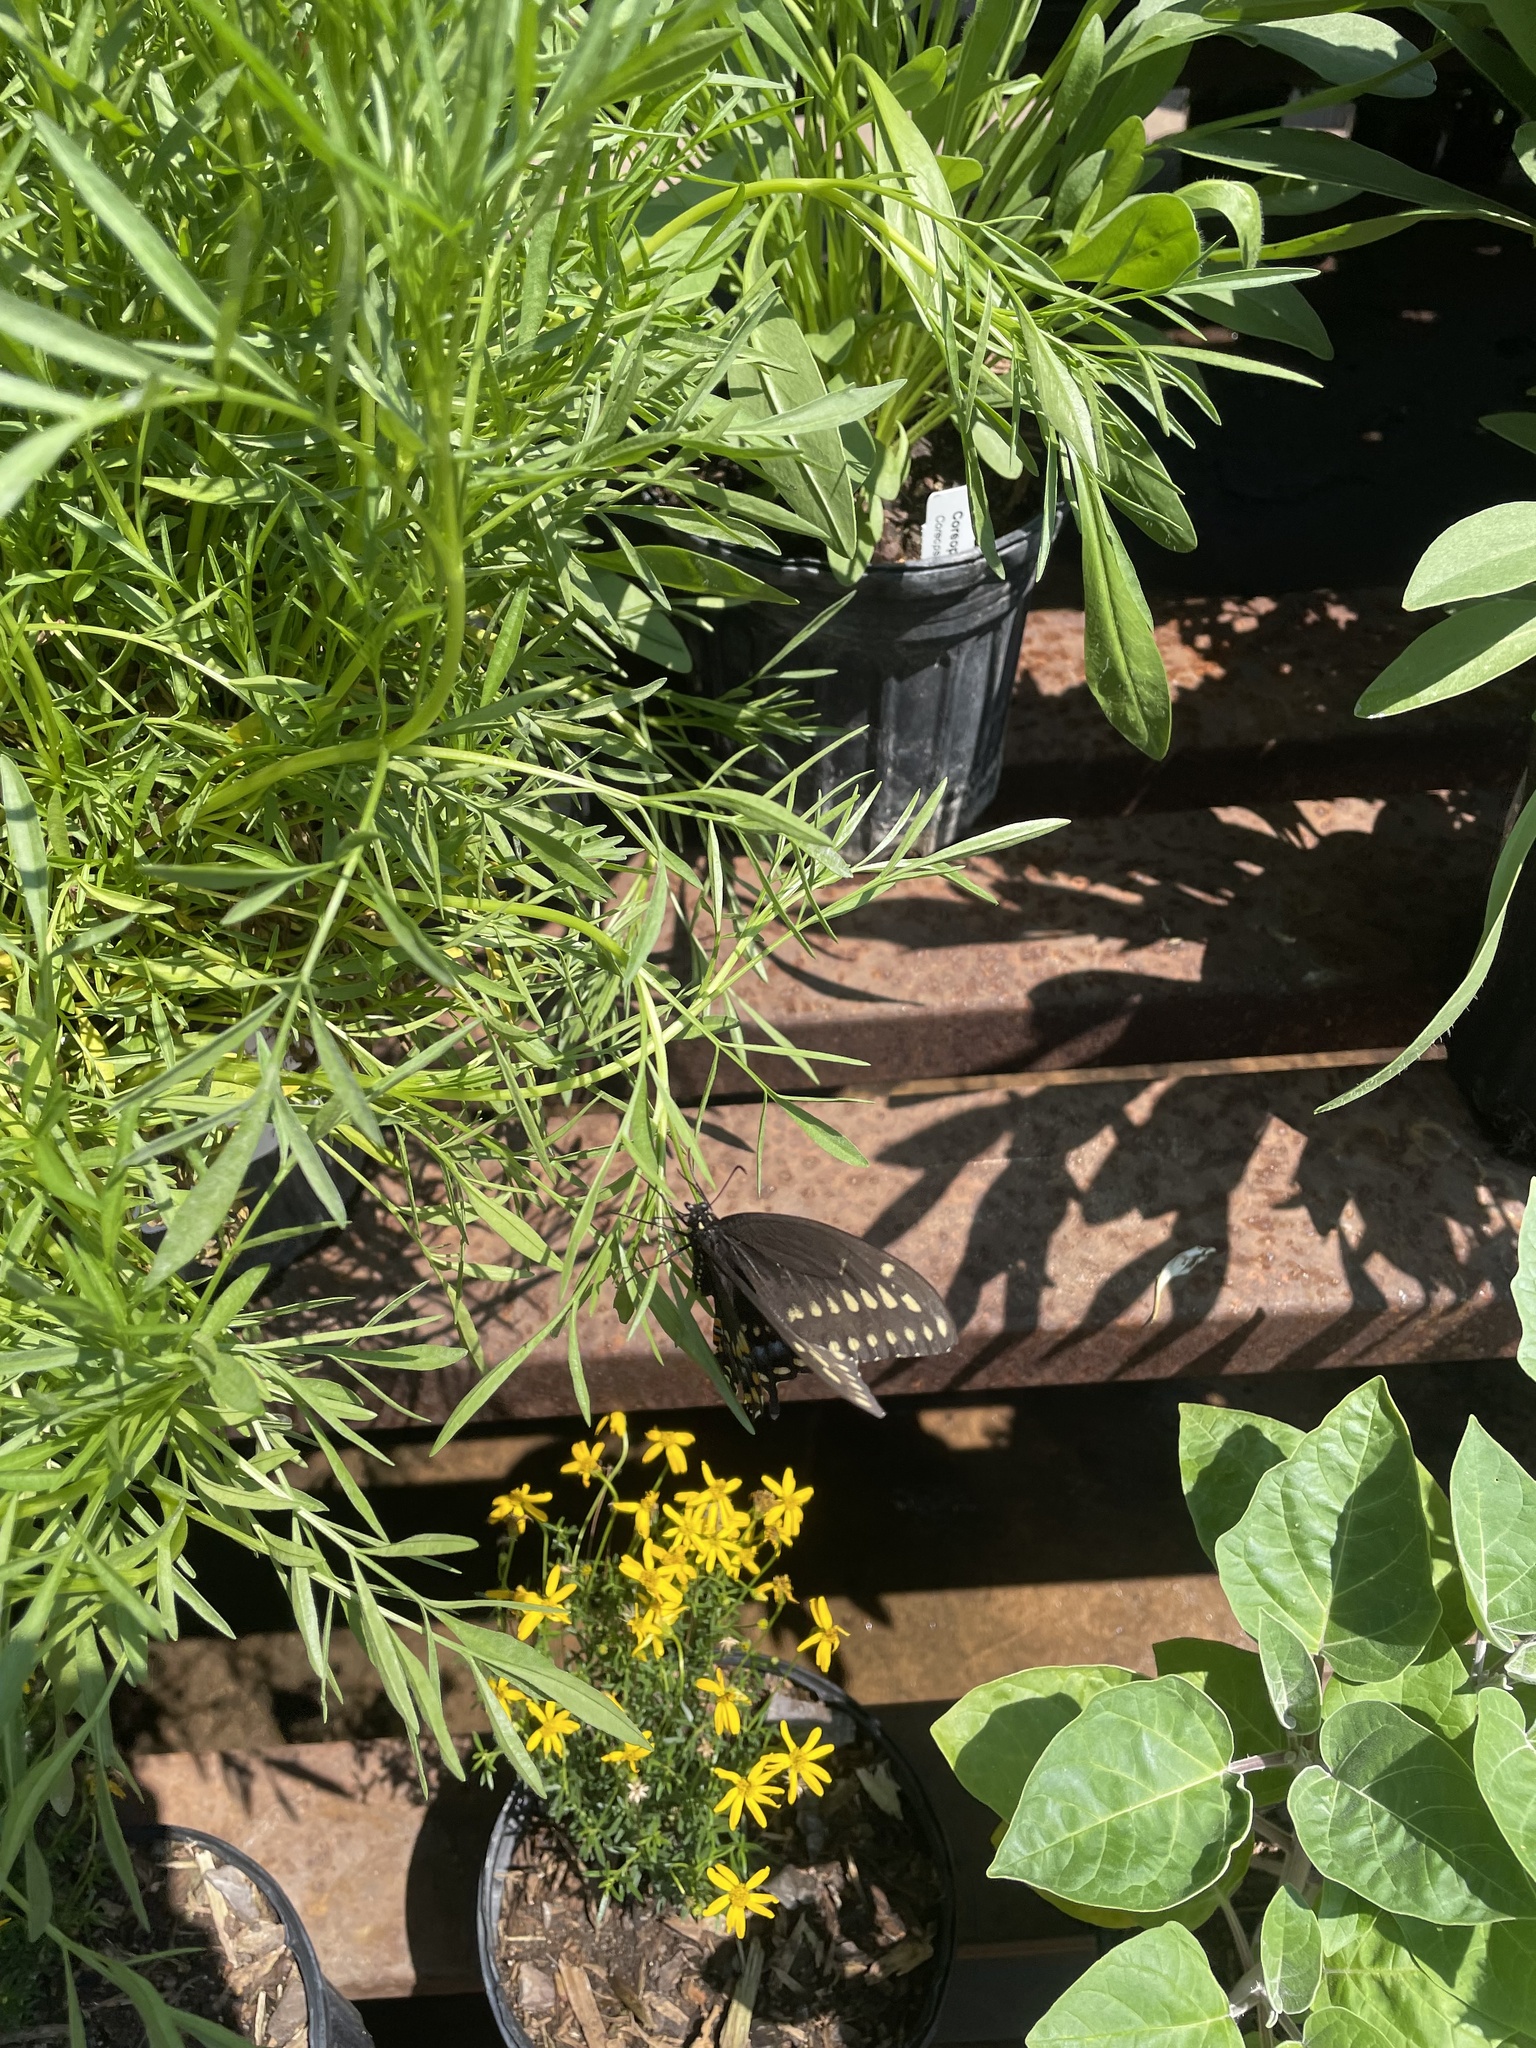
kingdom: Animalia
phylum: Arthropoda
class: Insecta
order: Lepidoptera
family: Papilionidae
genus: Papilio
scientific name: Papilio polyxenes
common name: Black swallowtail
